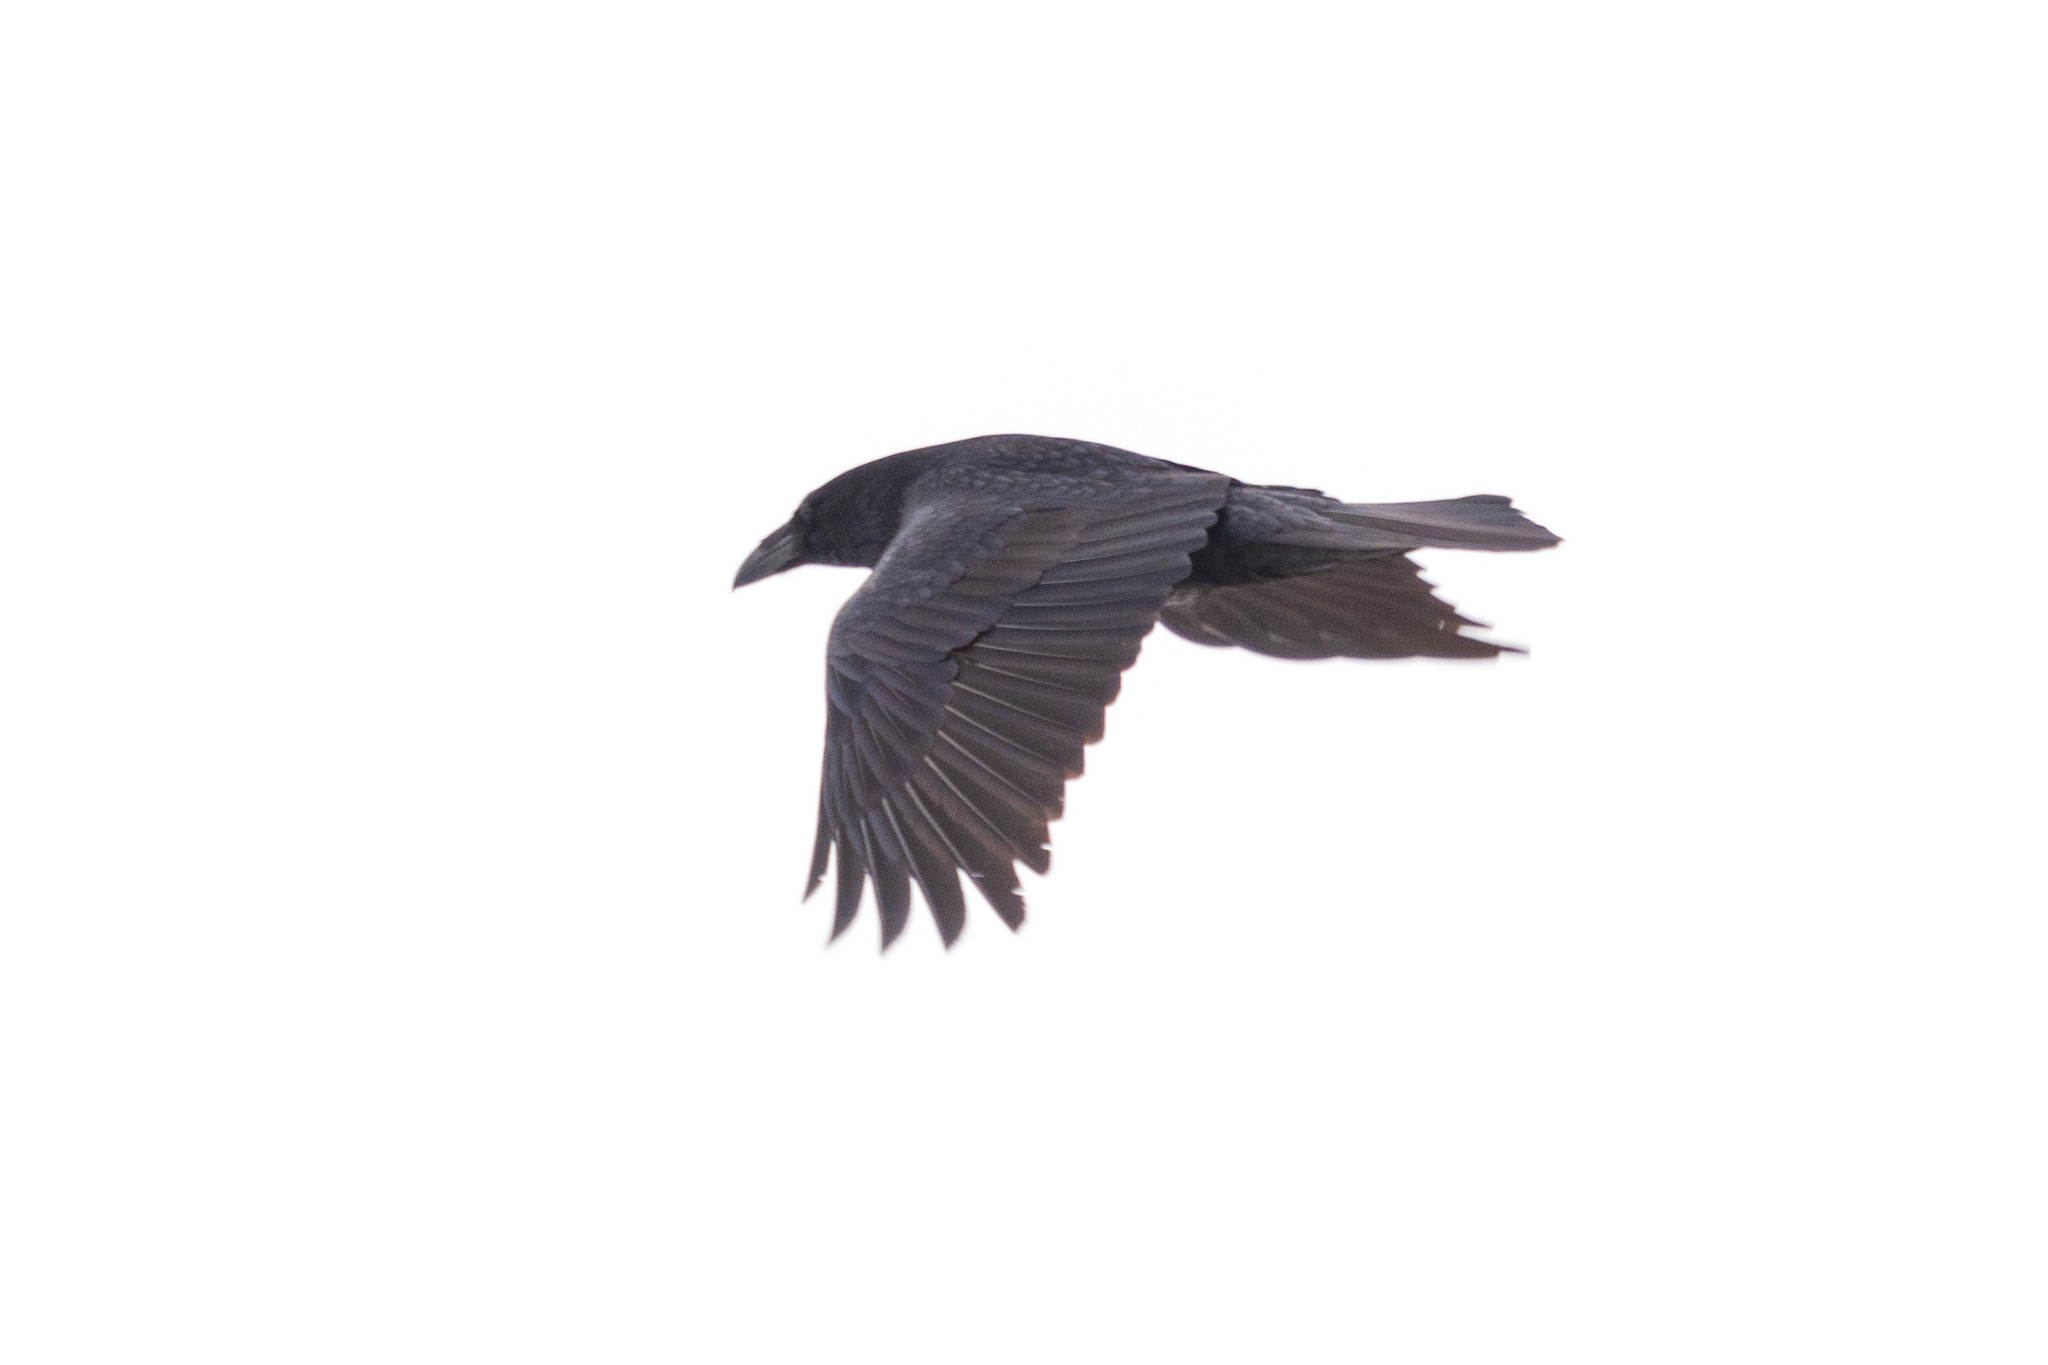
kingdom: Animalia
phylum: Chordata
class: Aves
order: Passeriformes
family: Corvidae
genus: Corvus
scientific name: Corvus corax
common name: Common raven
